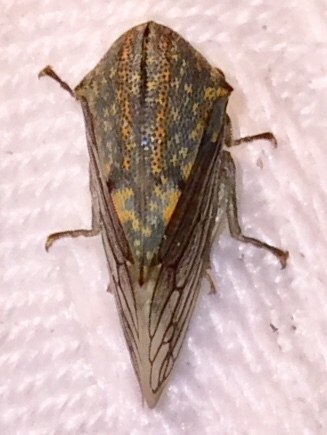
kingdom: Animalia
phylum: Arthropoda
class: Insecta
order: Hemiptera
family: Membracidae
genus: Platycotis
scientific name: Platycotis vittatus
